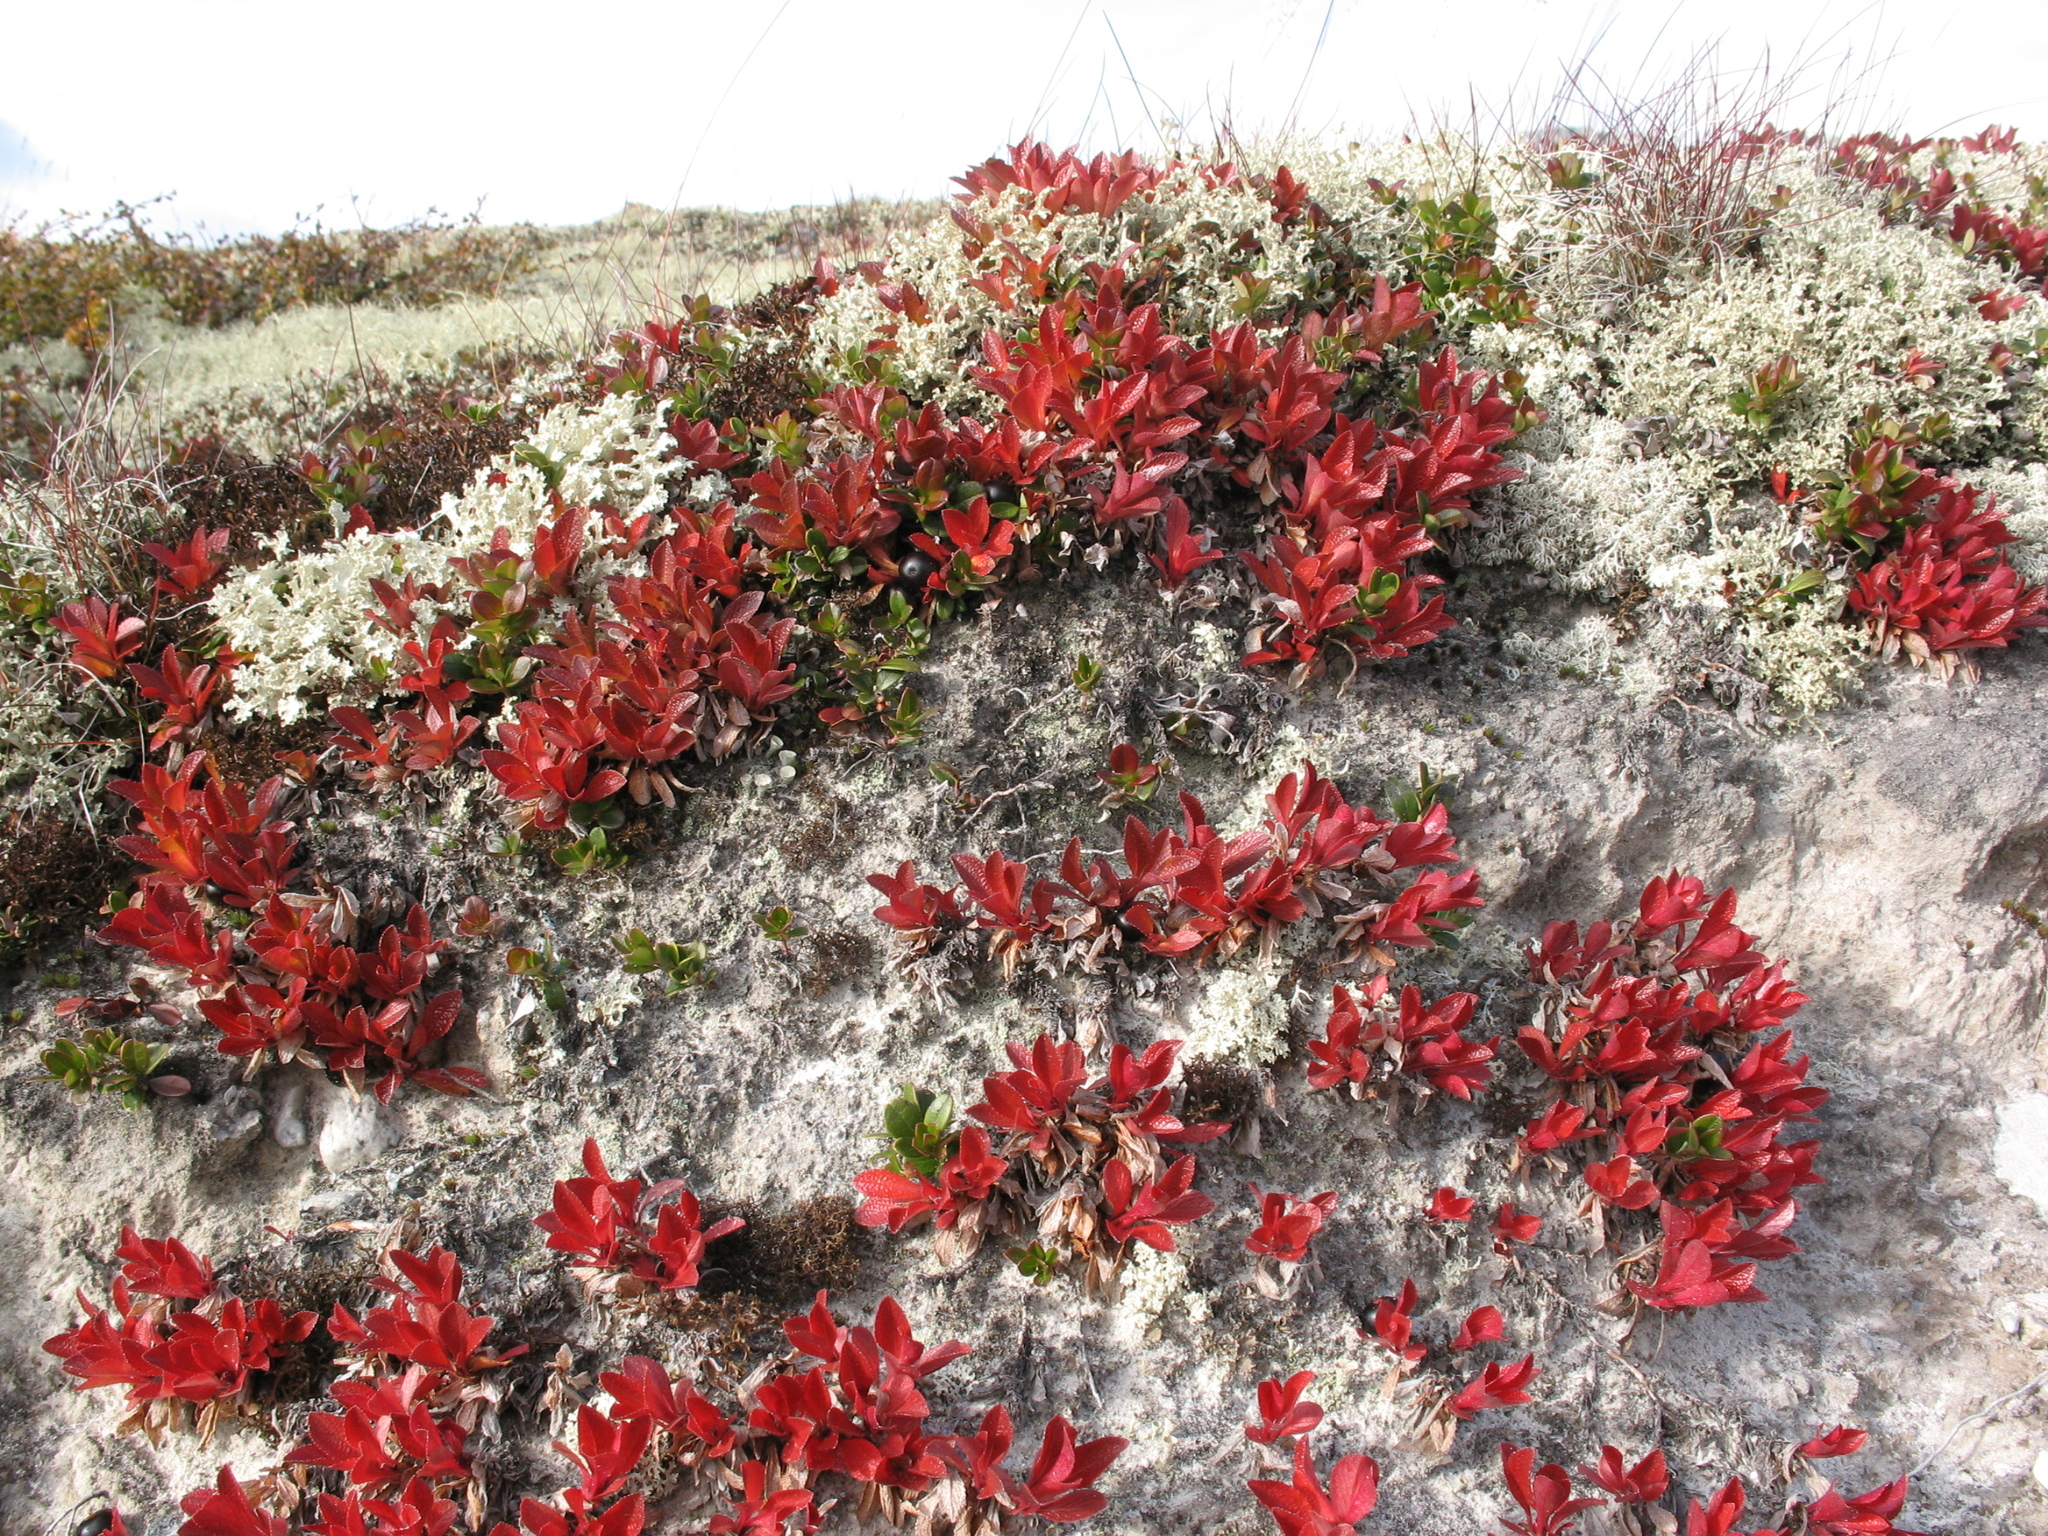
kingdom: Plantae
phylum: Tracheophyta
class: Magnoliopsida
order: Ericales
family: Ericaceae
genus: Arctostaphylos
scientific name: Arctostaphylos alpinus
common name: Alpine bearberry
